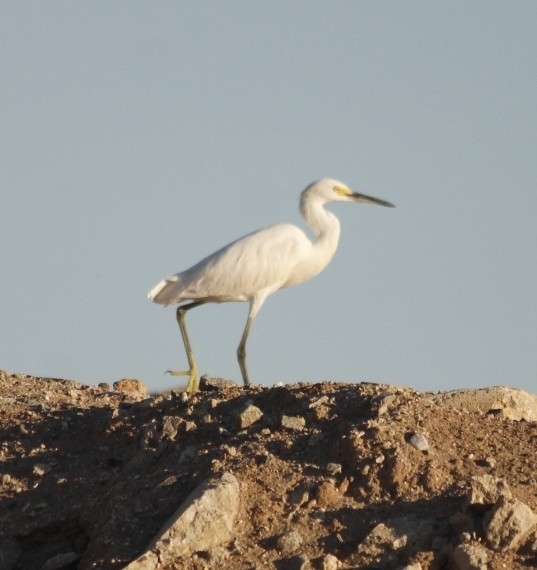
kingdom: Animalia
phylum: Chordata
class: Aves
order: Pelecaniformes
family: Ardeidae
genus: Egretta
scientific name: Egretta thula
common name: Snowy egret
